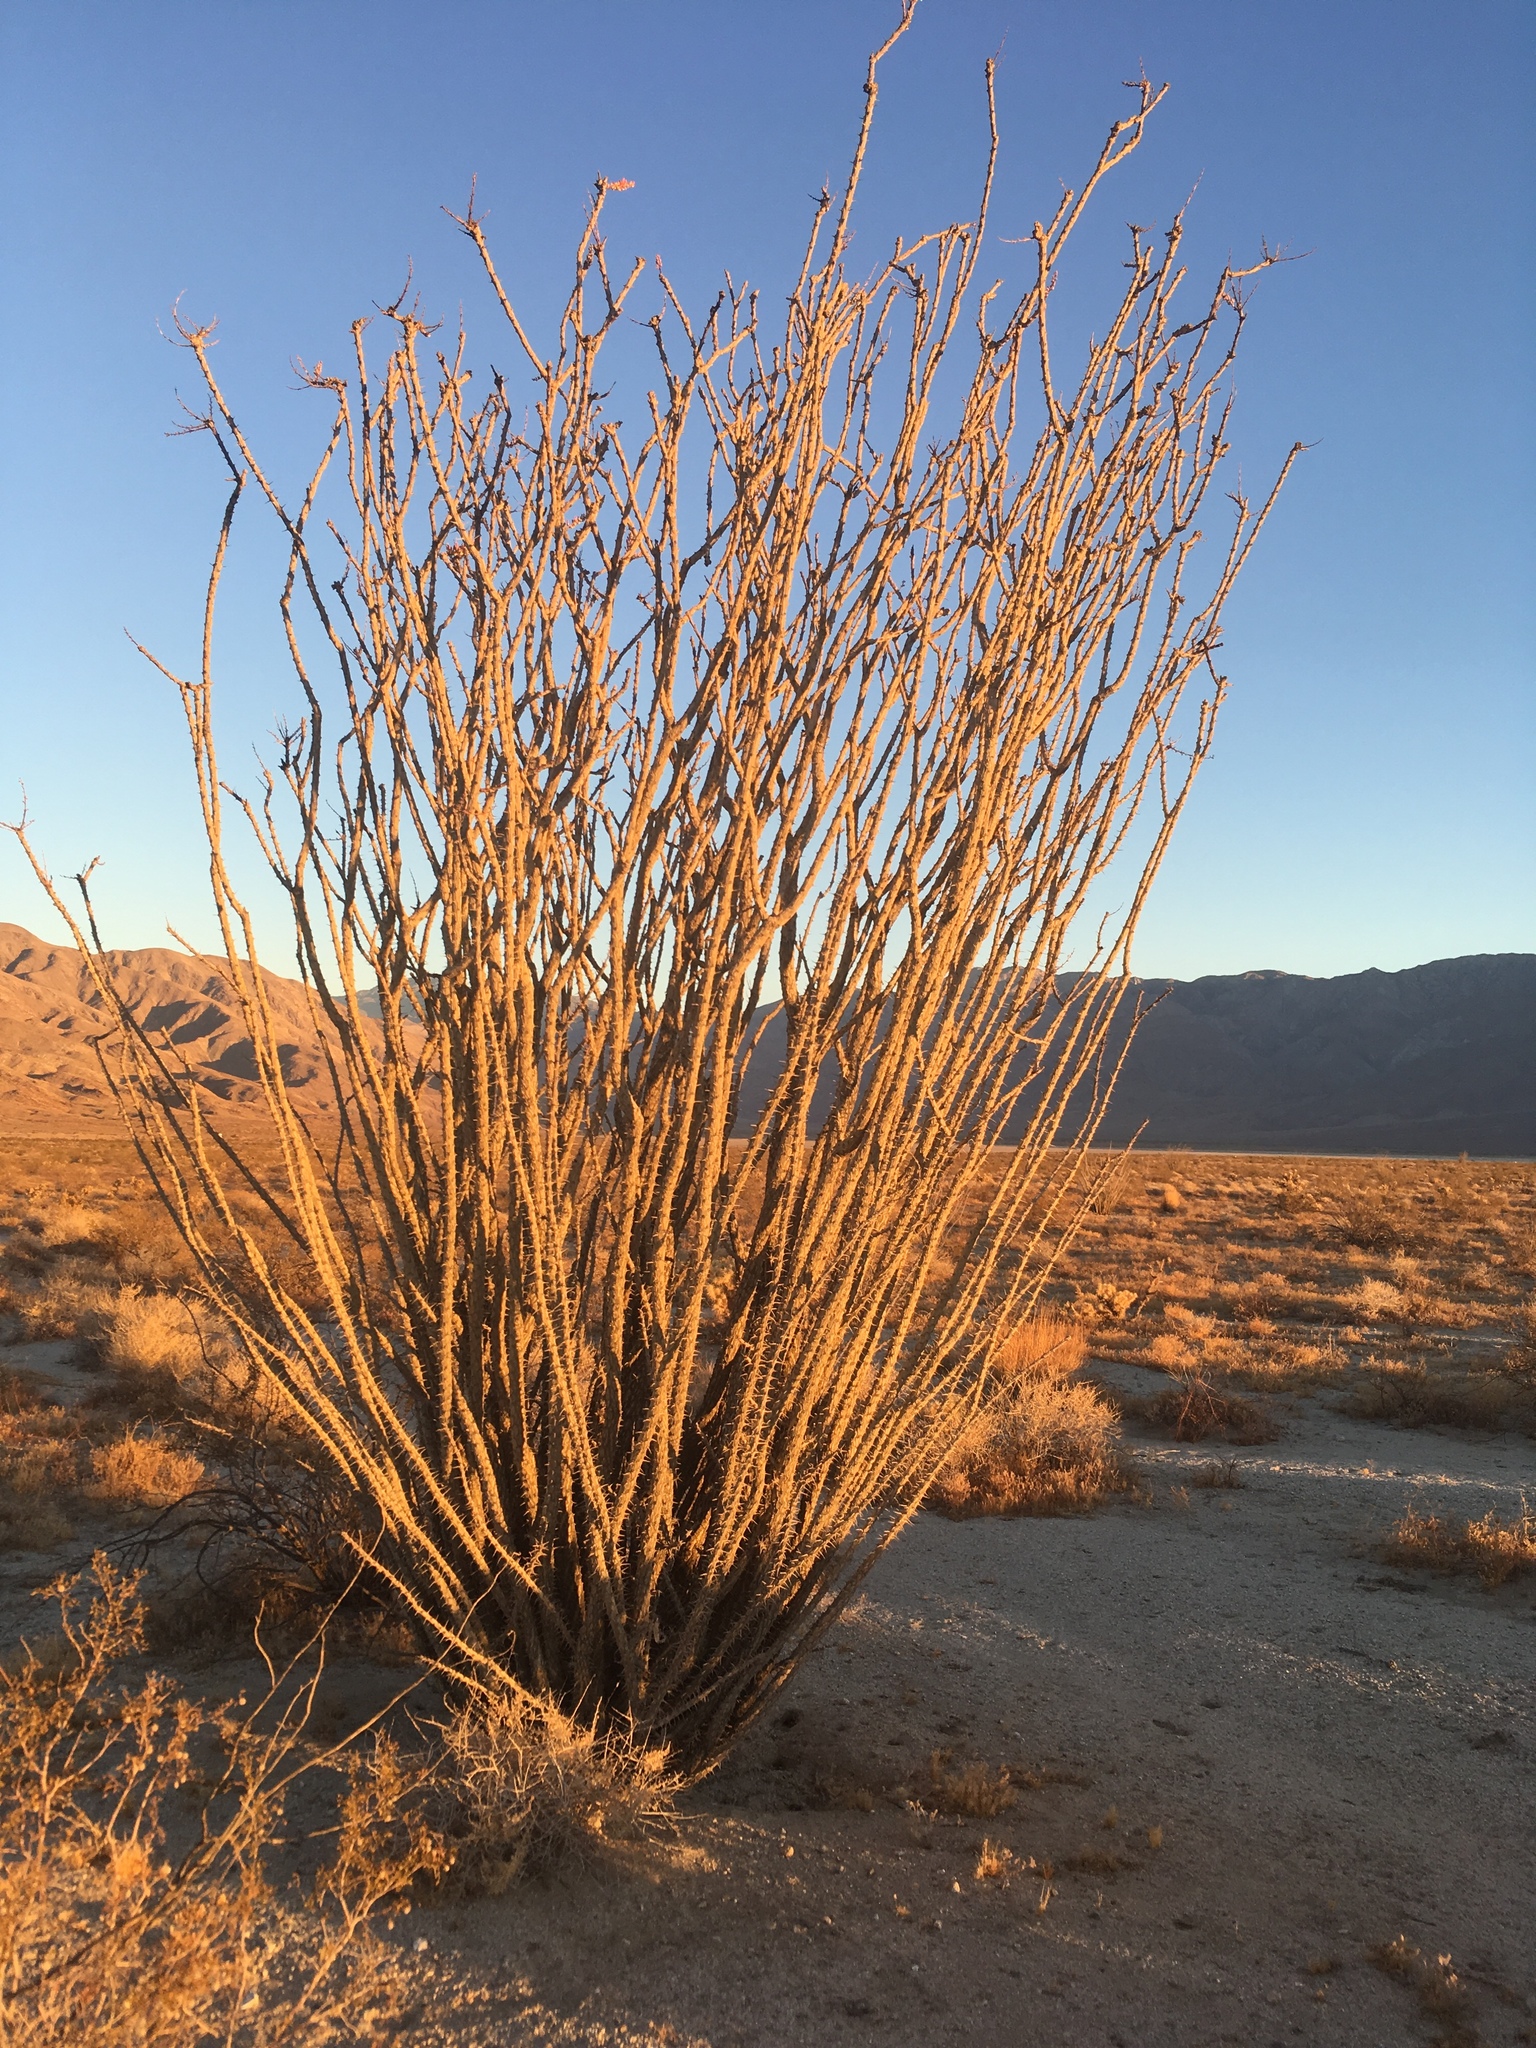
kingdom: Plantae
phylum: Tracheophyta
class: Magnoliopsida
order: Ericales
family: Fouquieriaceae
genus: Fouquieria
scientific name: Fouquieria splendens
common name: Vine-cactus
